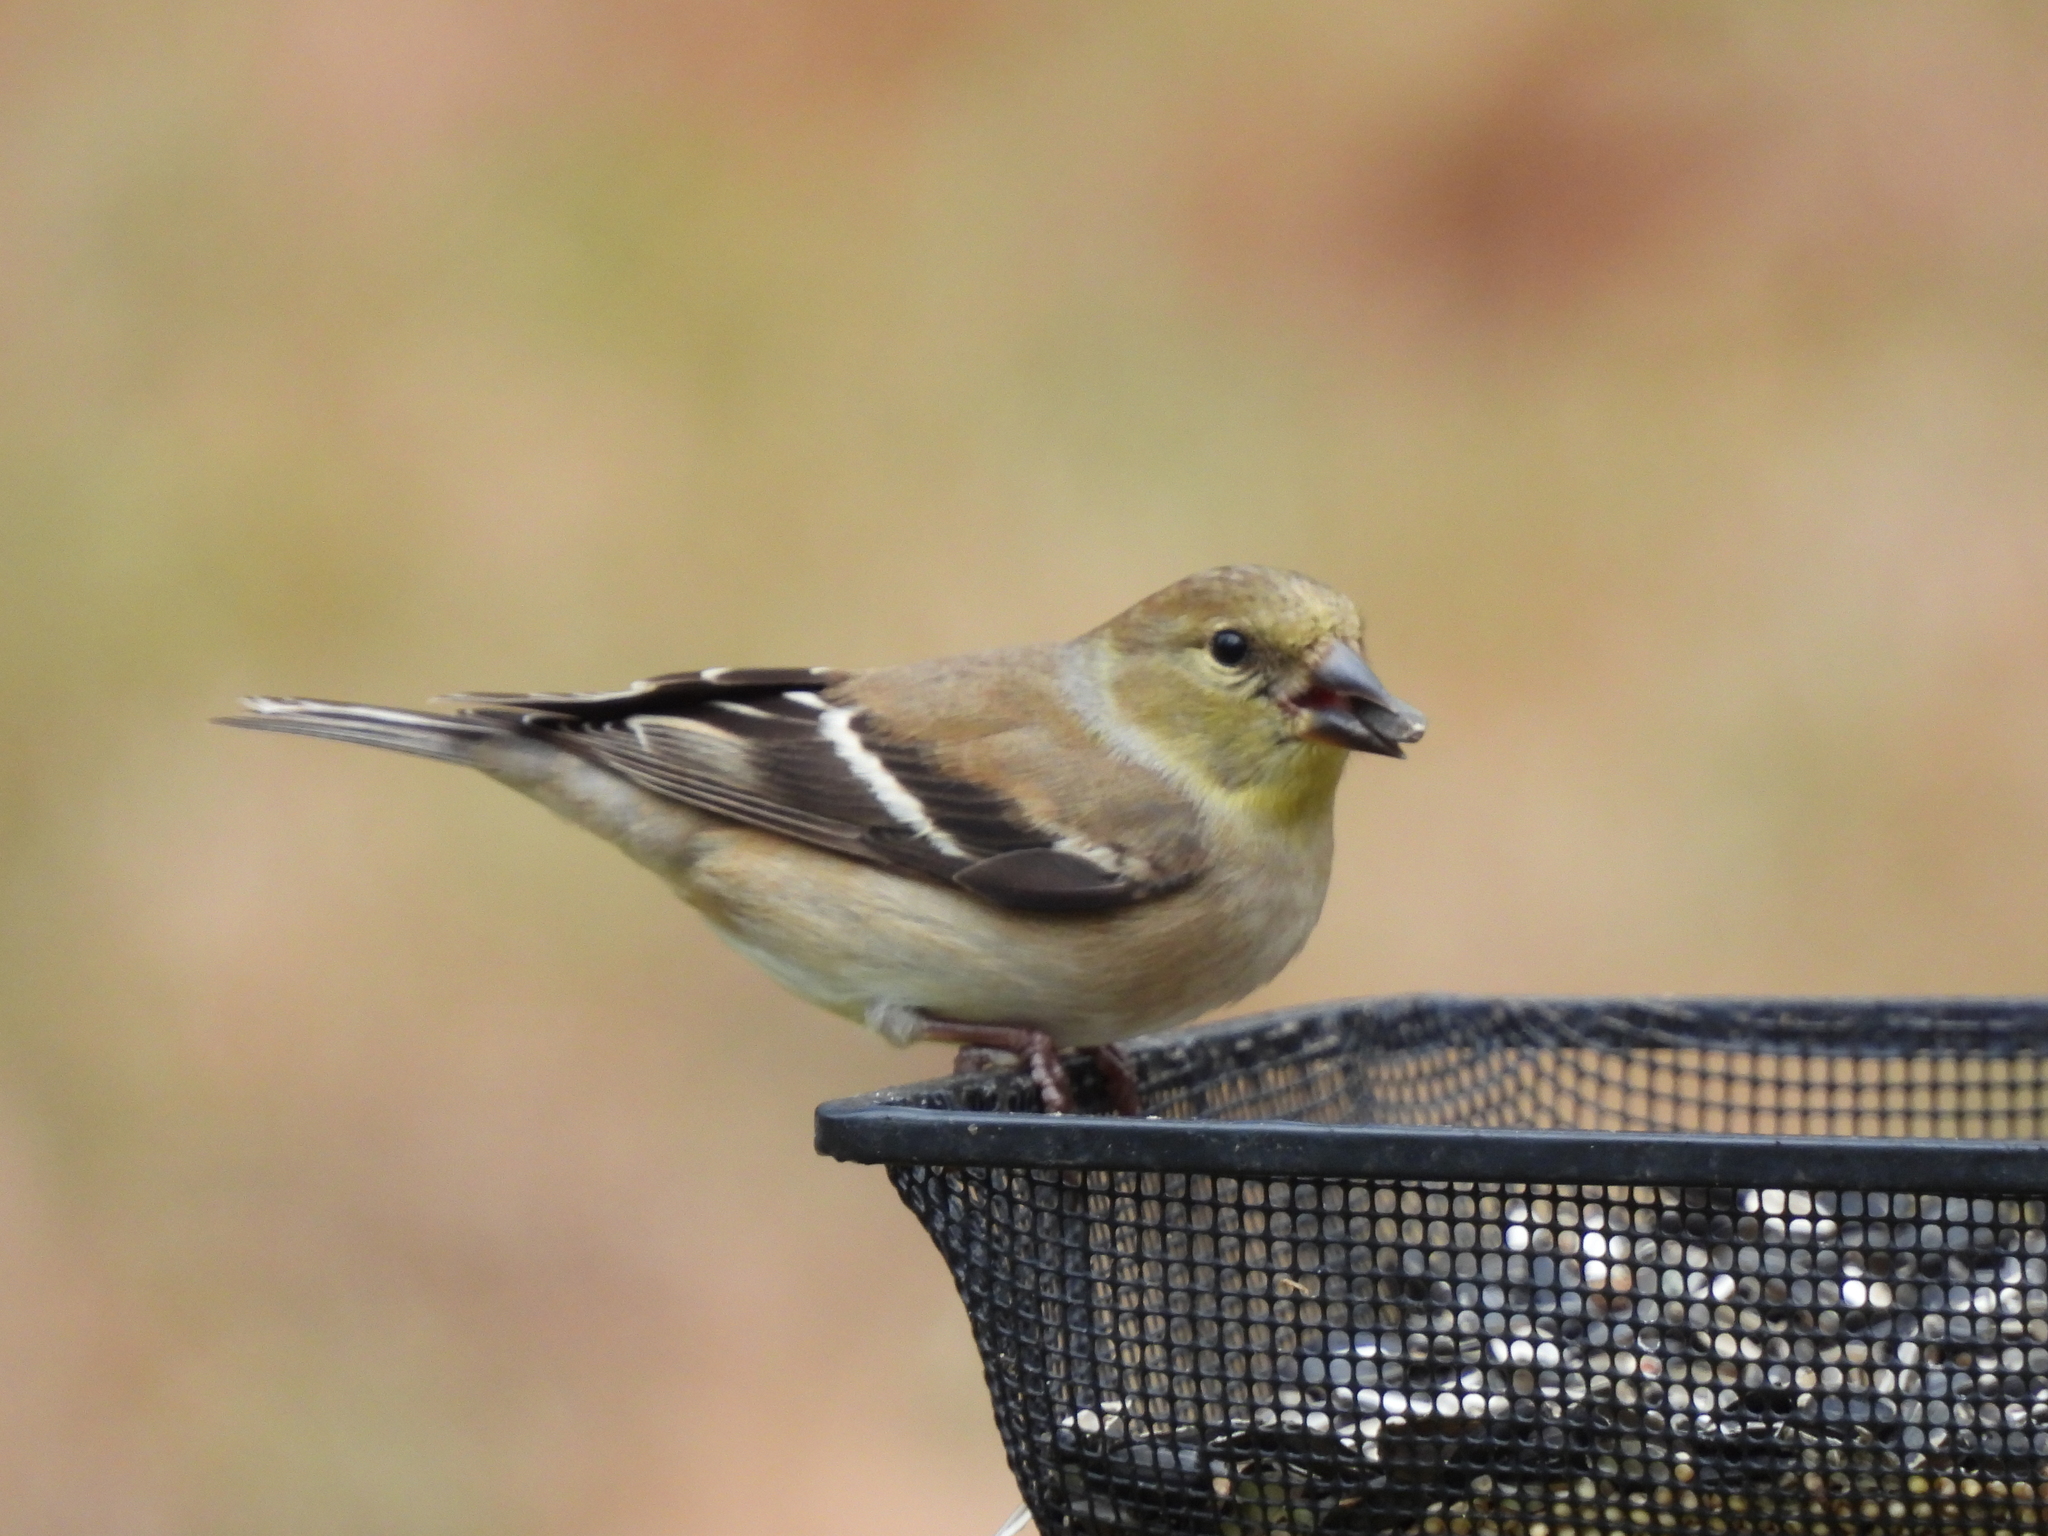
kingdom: Animalia
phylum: Chordata
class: Aves
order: Passeriformes
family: Fringillidae
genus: Spinus
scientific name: Spinus tristis
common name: American goldfinch
